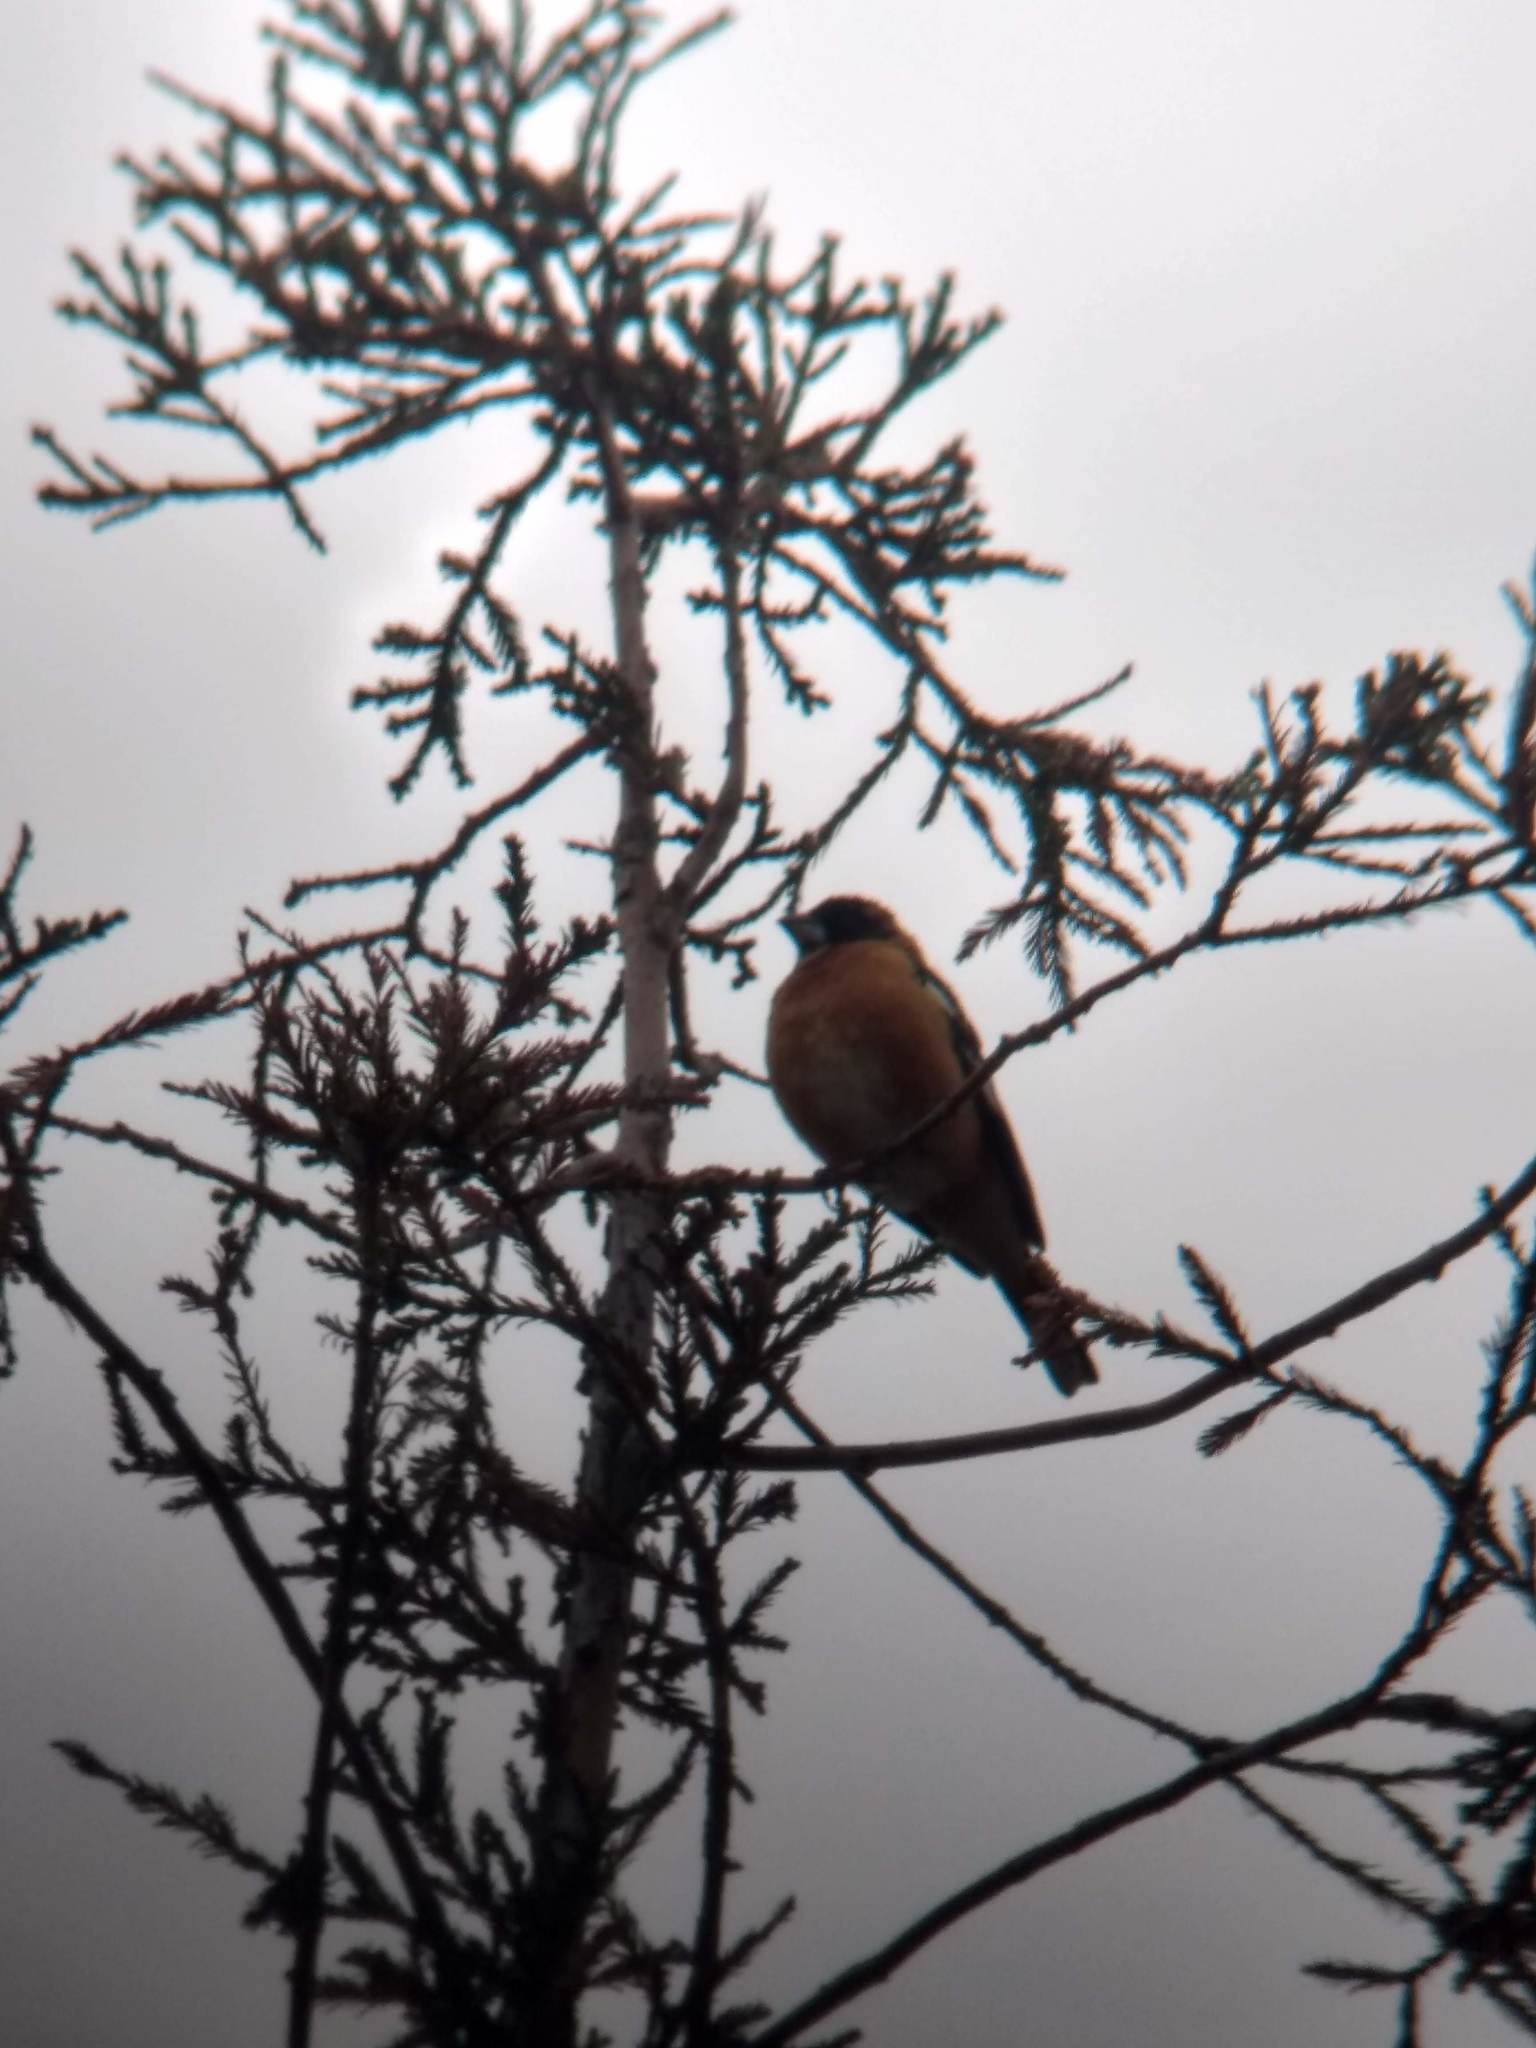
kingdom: Animalia
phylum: Chordata
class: Aves
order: Passeriformes
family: Cardinalidae
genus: Pheucticus
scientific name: Pheucticus melanocephalus
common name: Black-headed grosbeak
